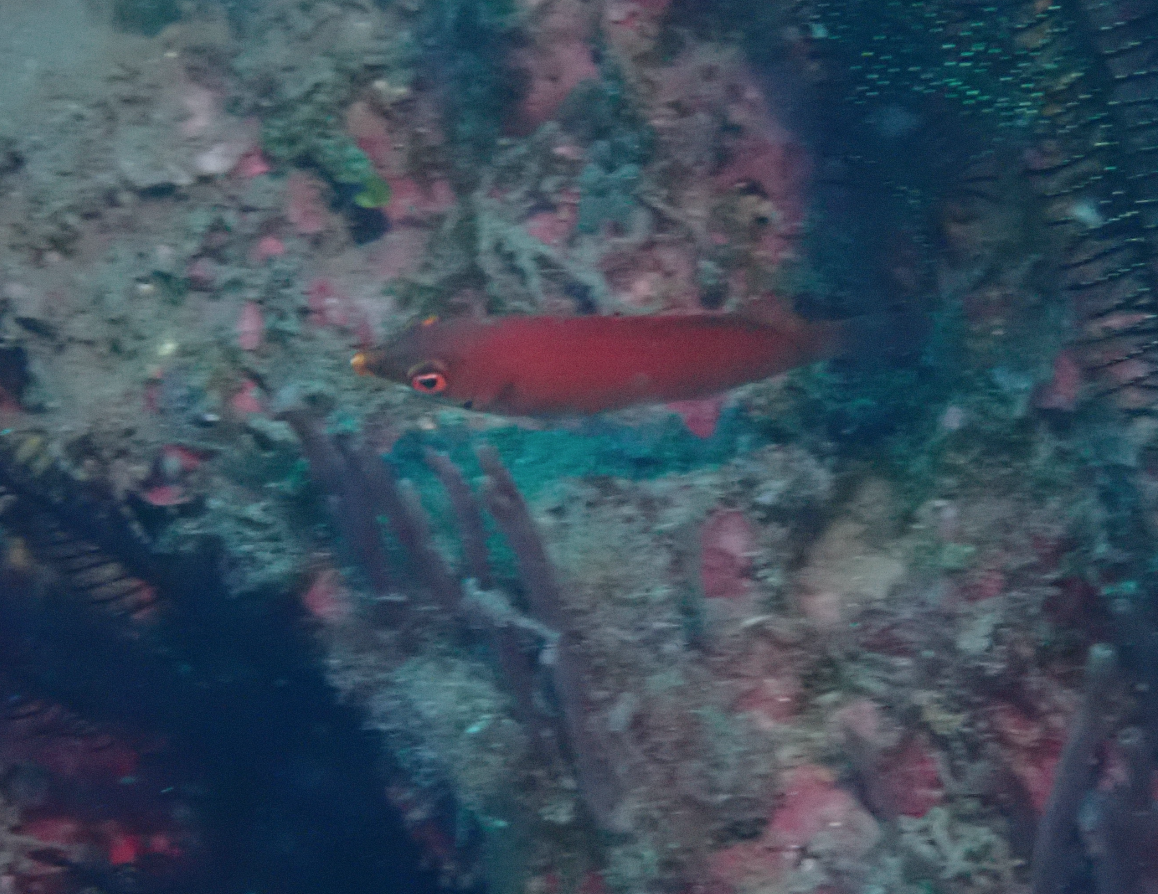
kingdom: Animalia
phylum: Chordata
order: Perciformes
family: Labridae
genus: Pseudocheilinus
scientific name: Pseudocheilinus evanidus
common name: Disappearing wrasse
